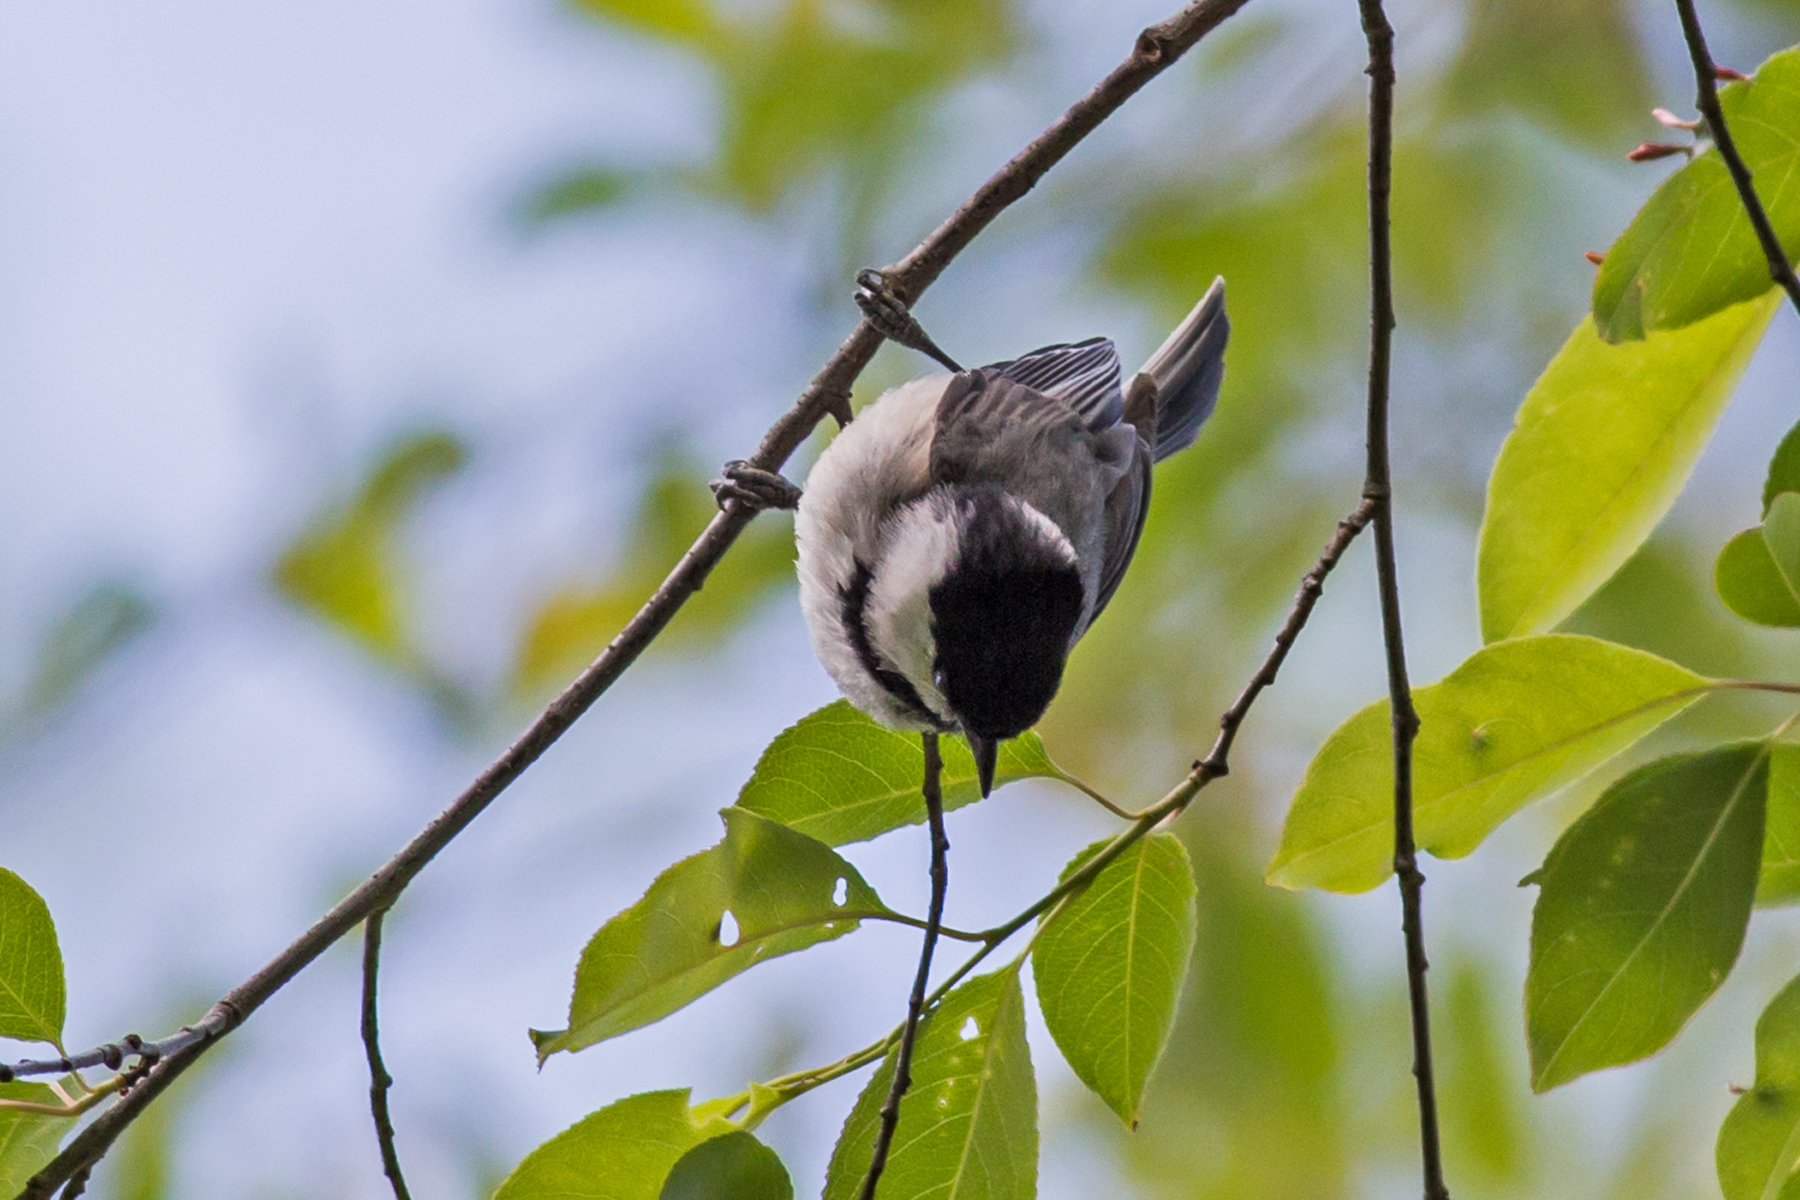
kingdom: Animalia
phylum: Chordata
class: Aves
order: Passeriformes
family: Paridae
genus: Poecile
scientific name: Poecile carolinensis
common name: Carolina chickadee
